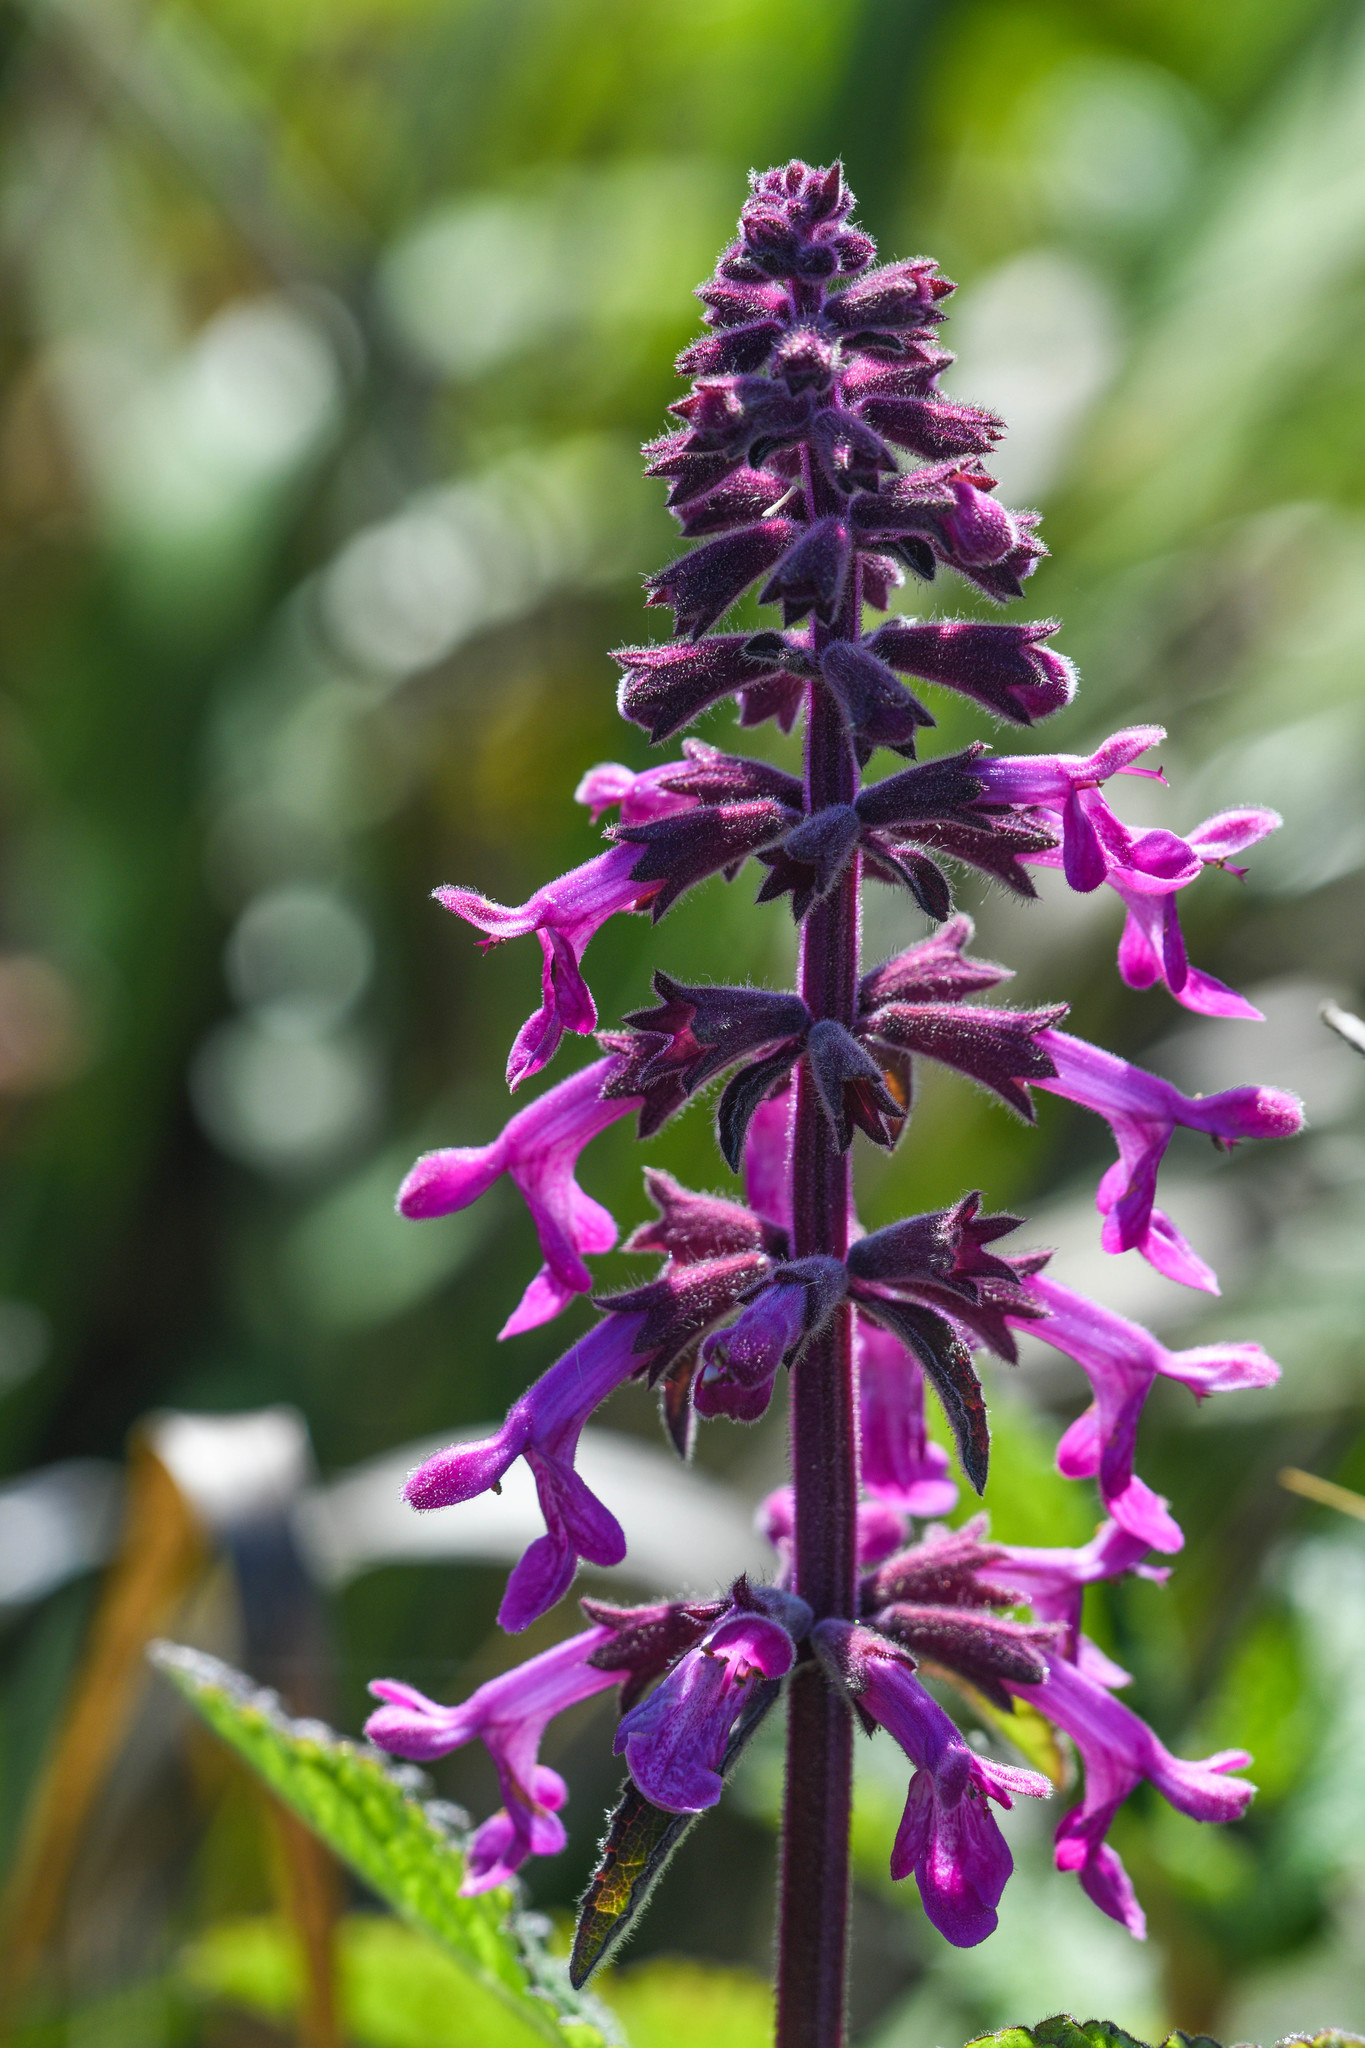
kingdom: Plantae
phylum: Tracheophyta
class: Magnoliopsida
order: Lamiales
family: Lamiaceae
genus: Stachys
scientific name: Stachys chamissonis
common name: Coastal hedge-nettle
